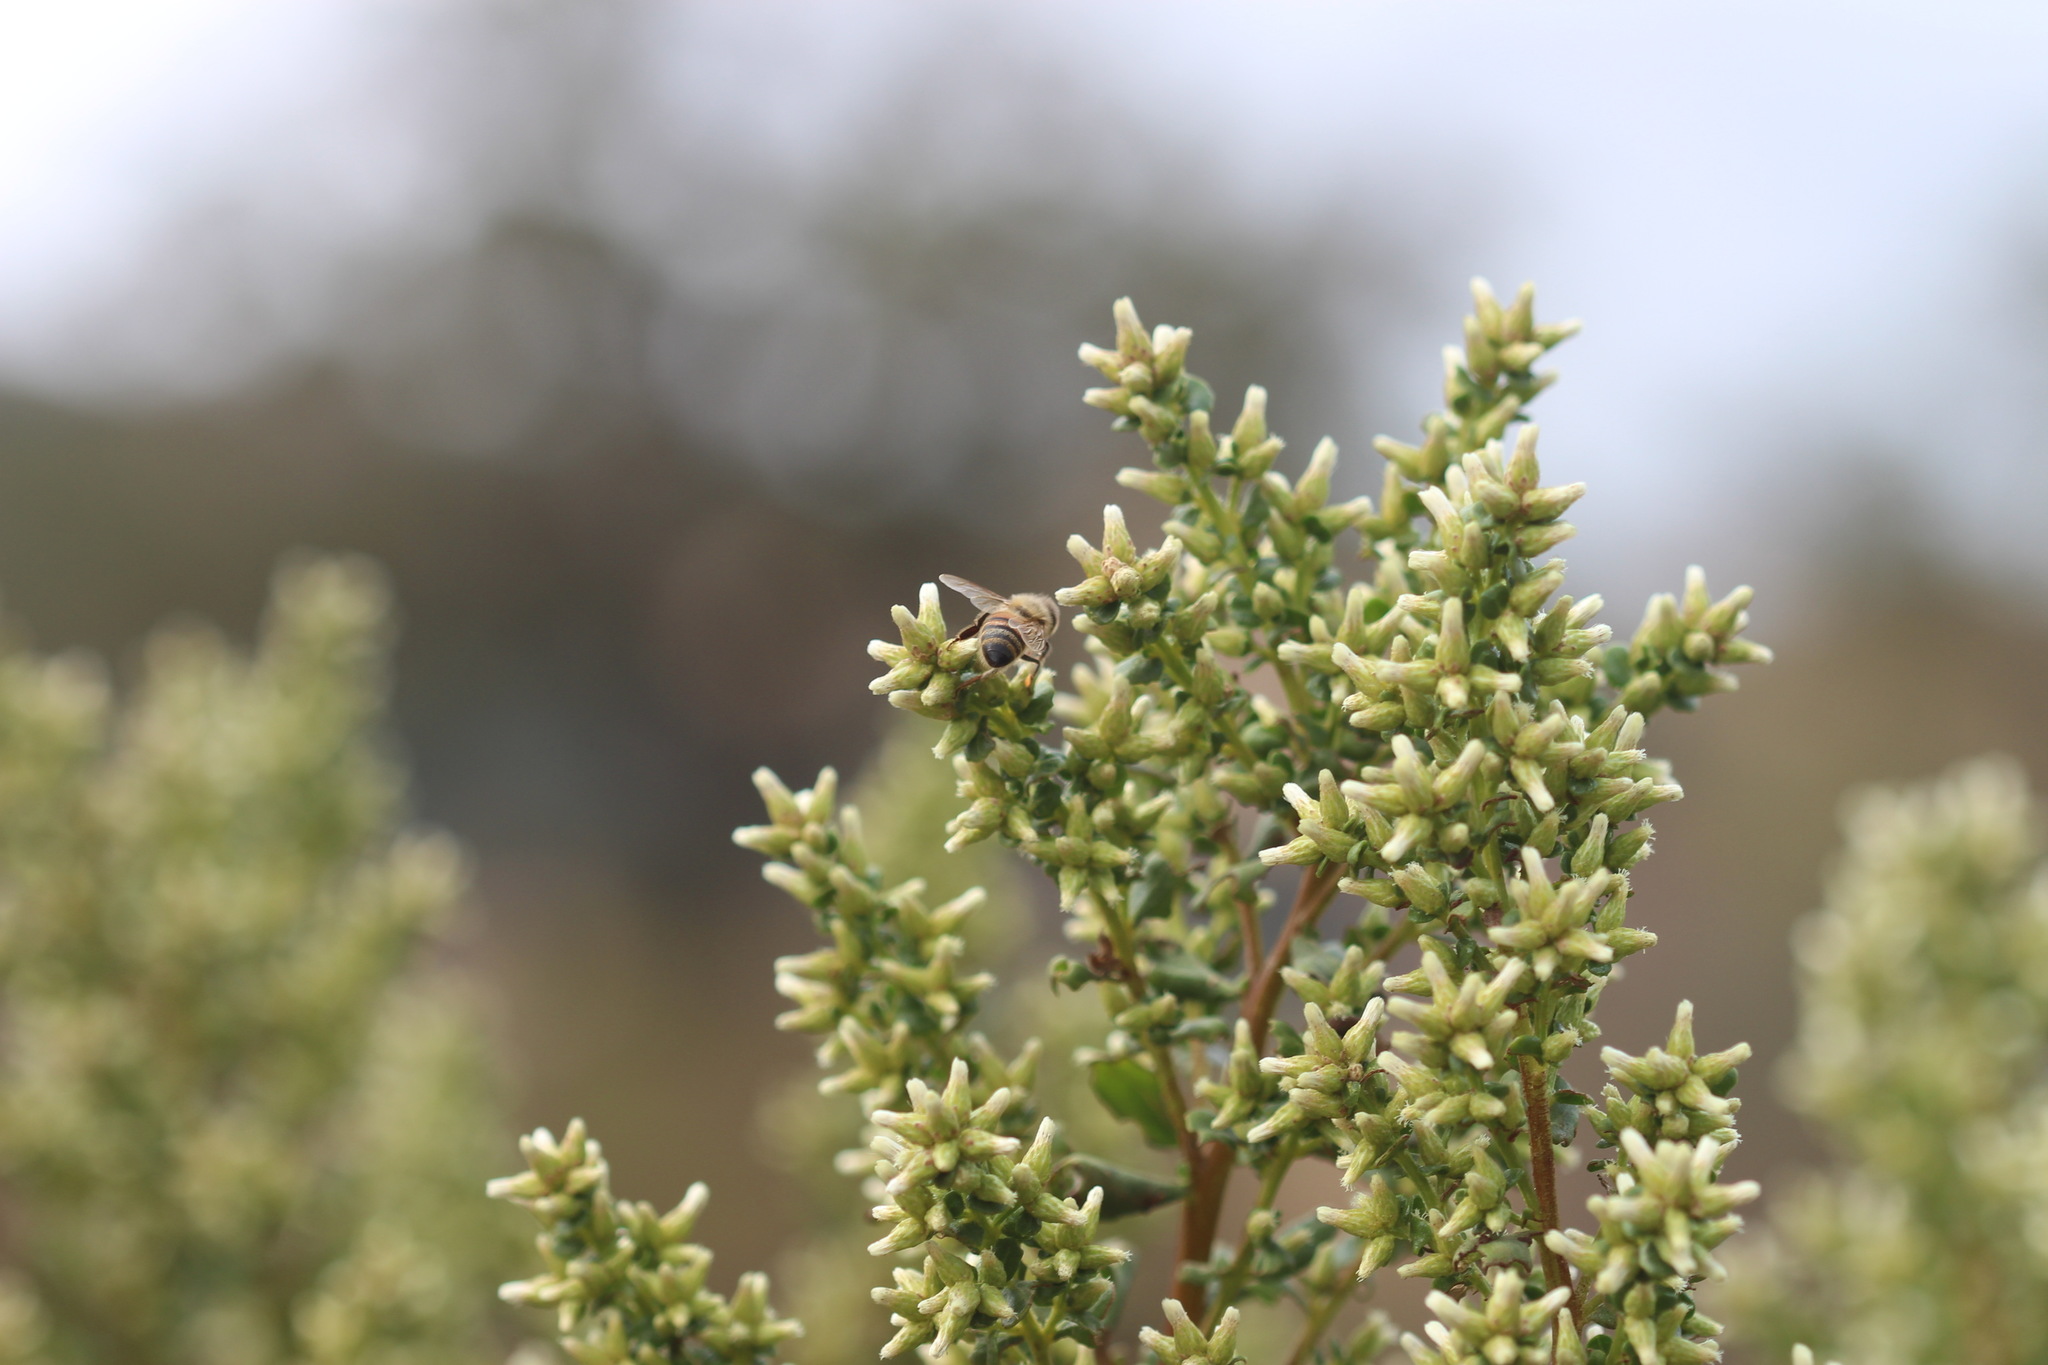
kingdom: Animalia
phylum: Arthropoda
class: Insecta
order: Hymenoptera
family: Apidae
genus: Apis
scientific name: Apis mellifera
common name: Honey bee
